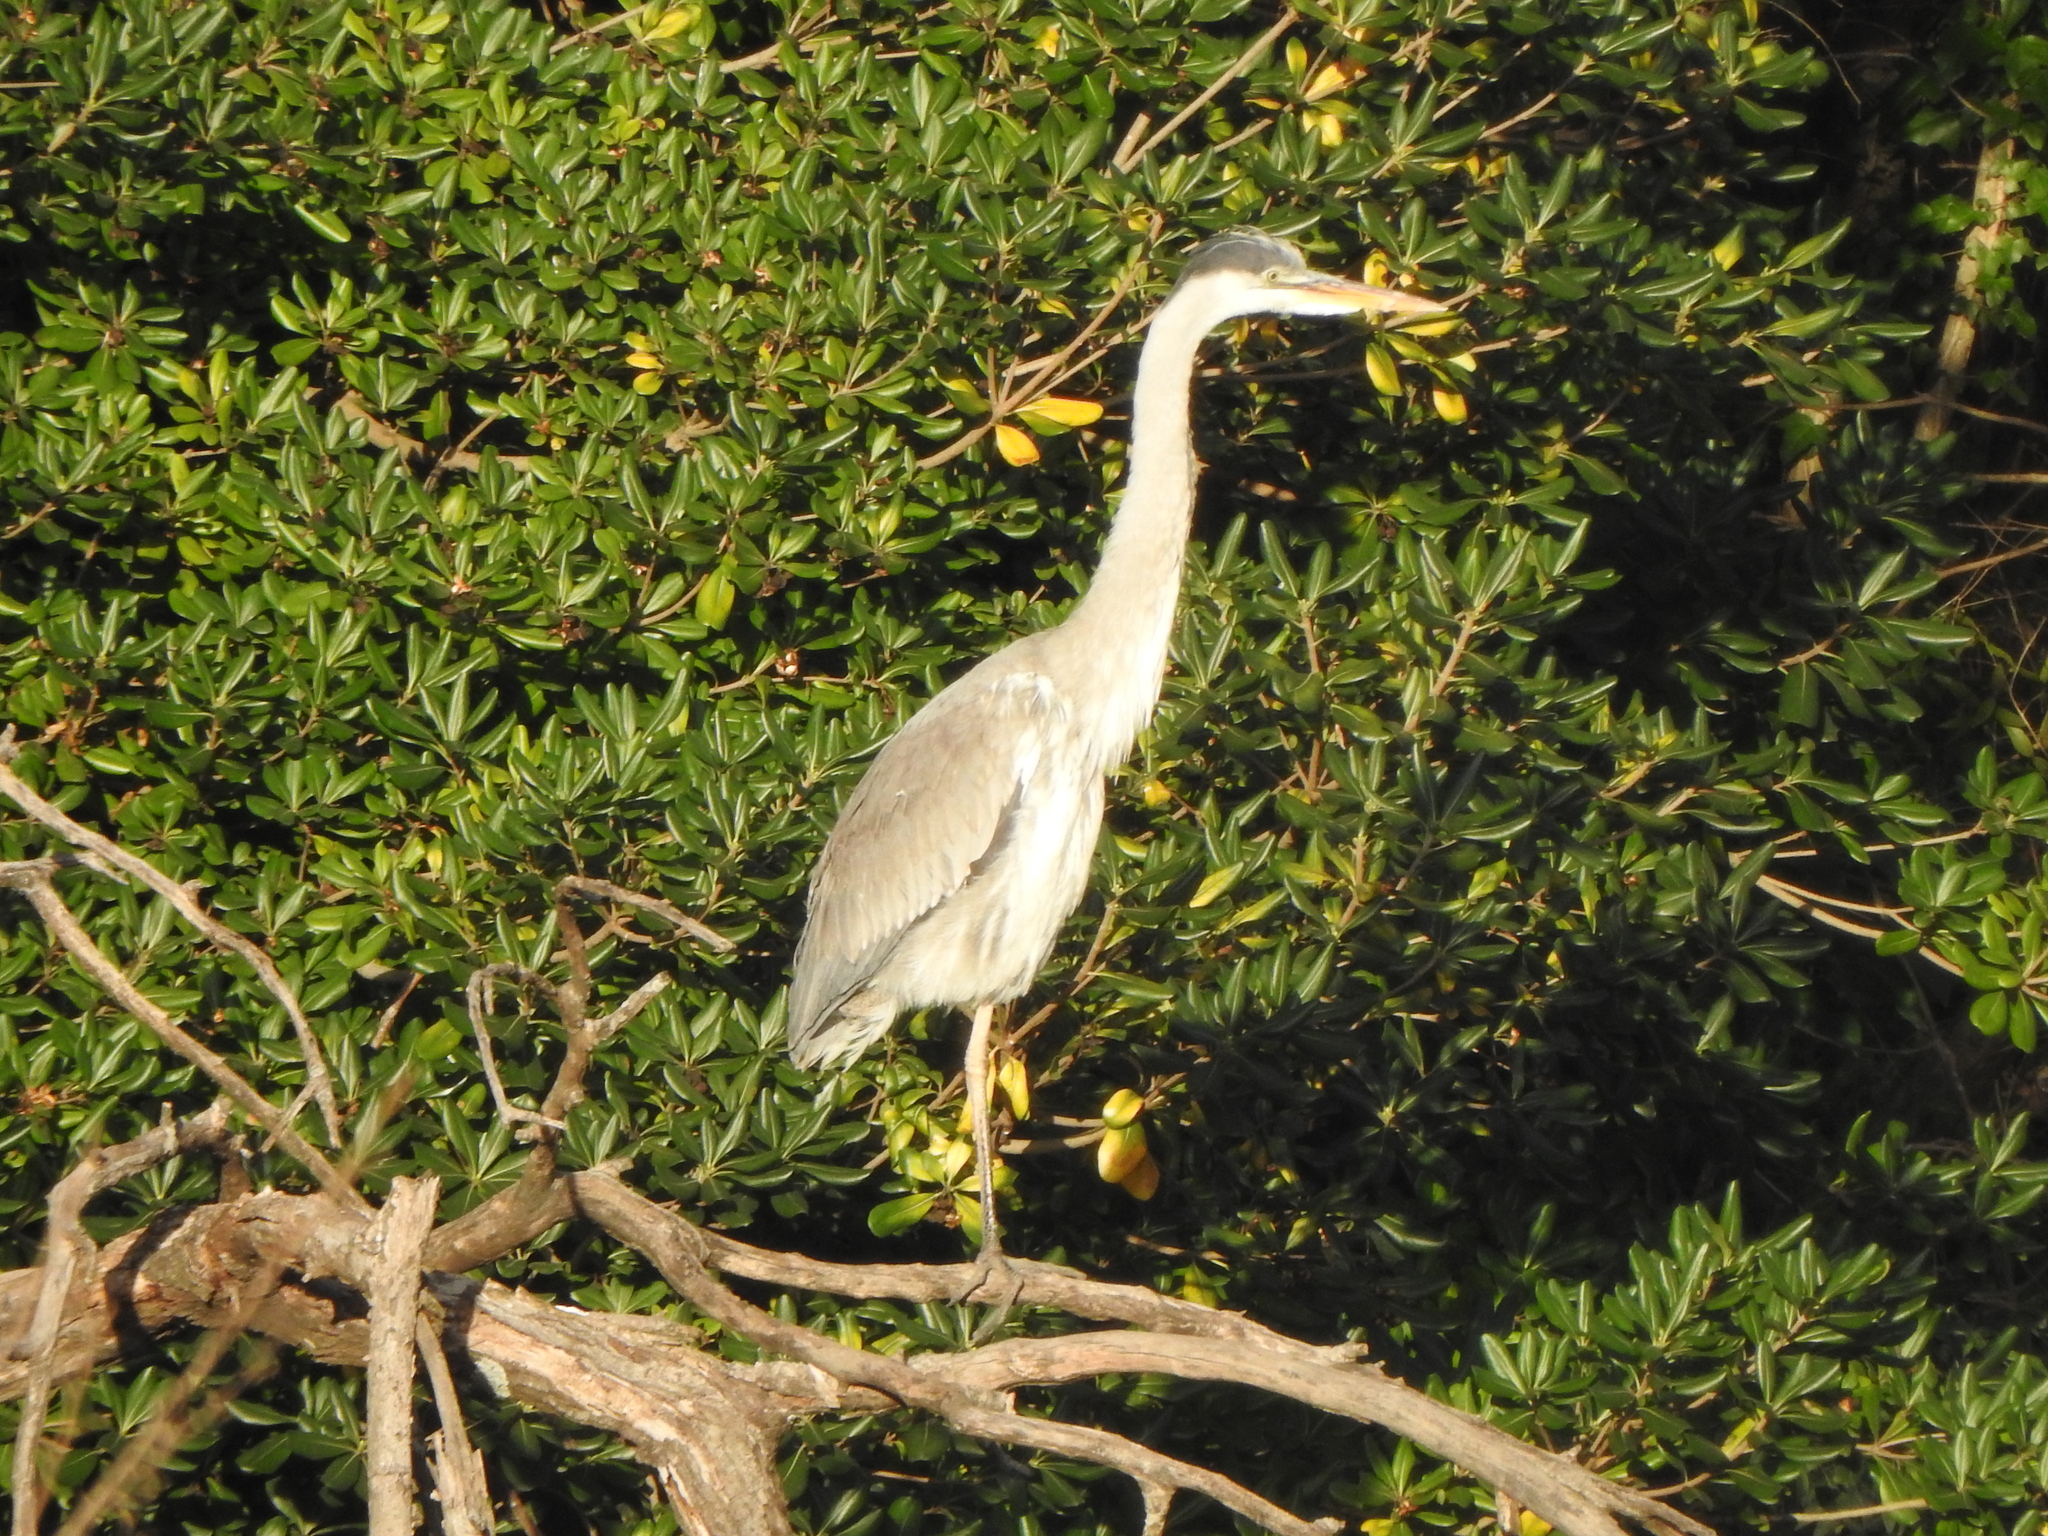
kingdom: Animalia
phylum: Chordata
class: Aves
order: Pelecaniformes
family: Ardeidae
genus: Ardea
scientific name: Ardea cocoi
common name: Cocoi heron
